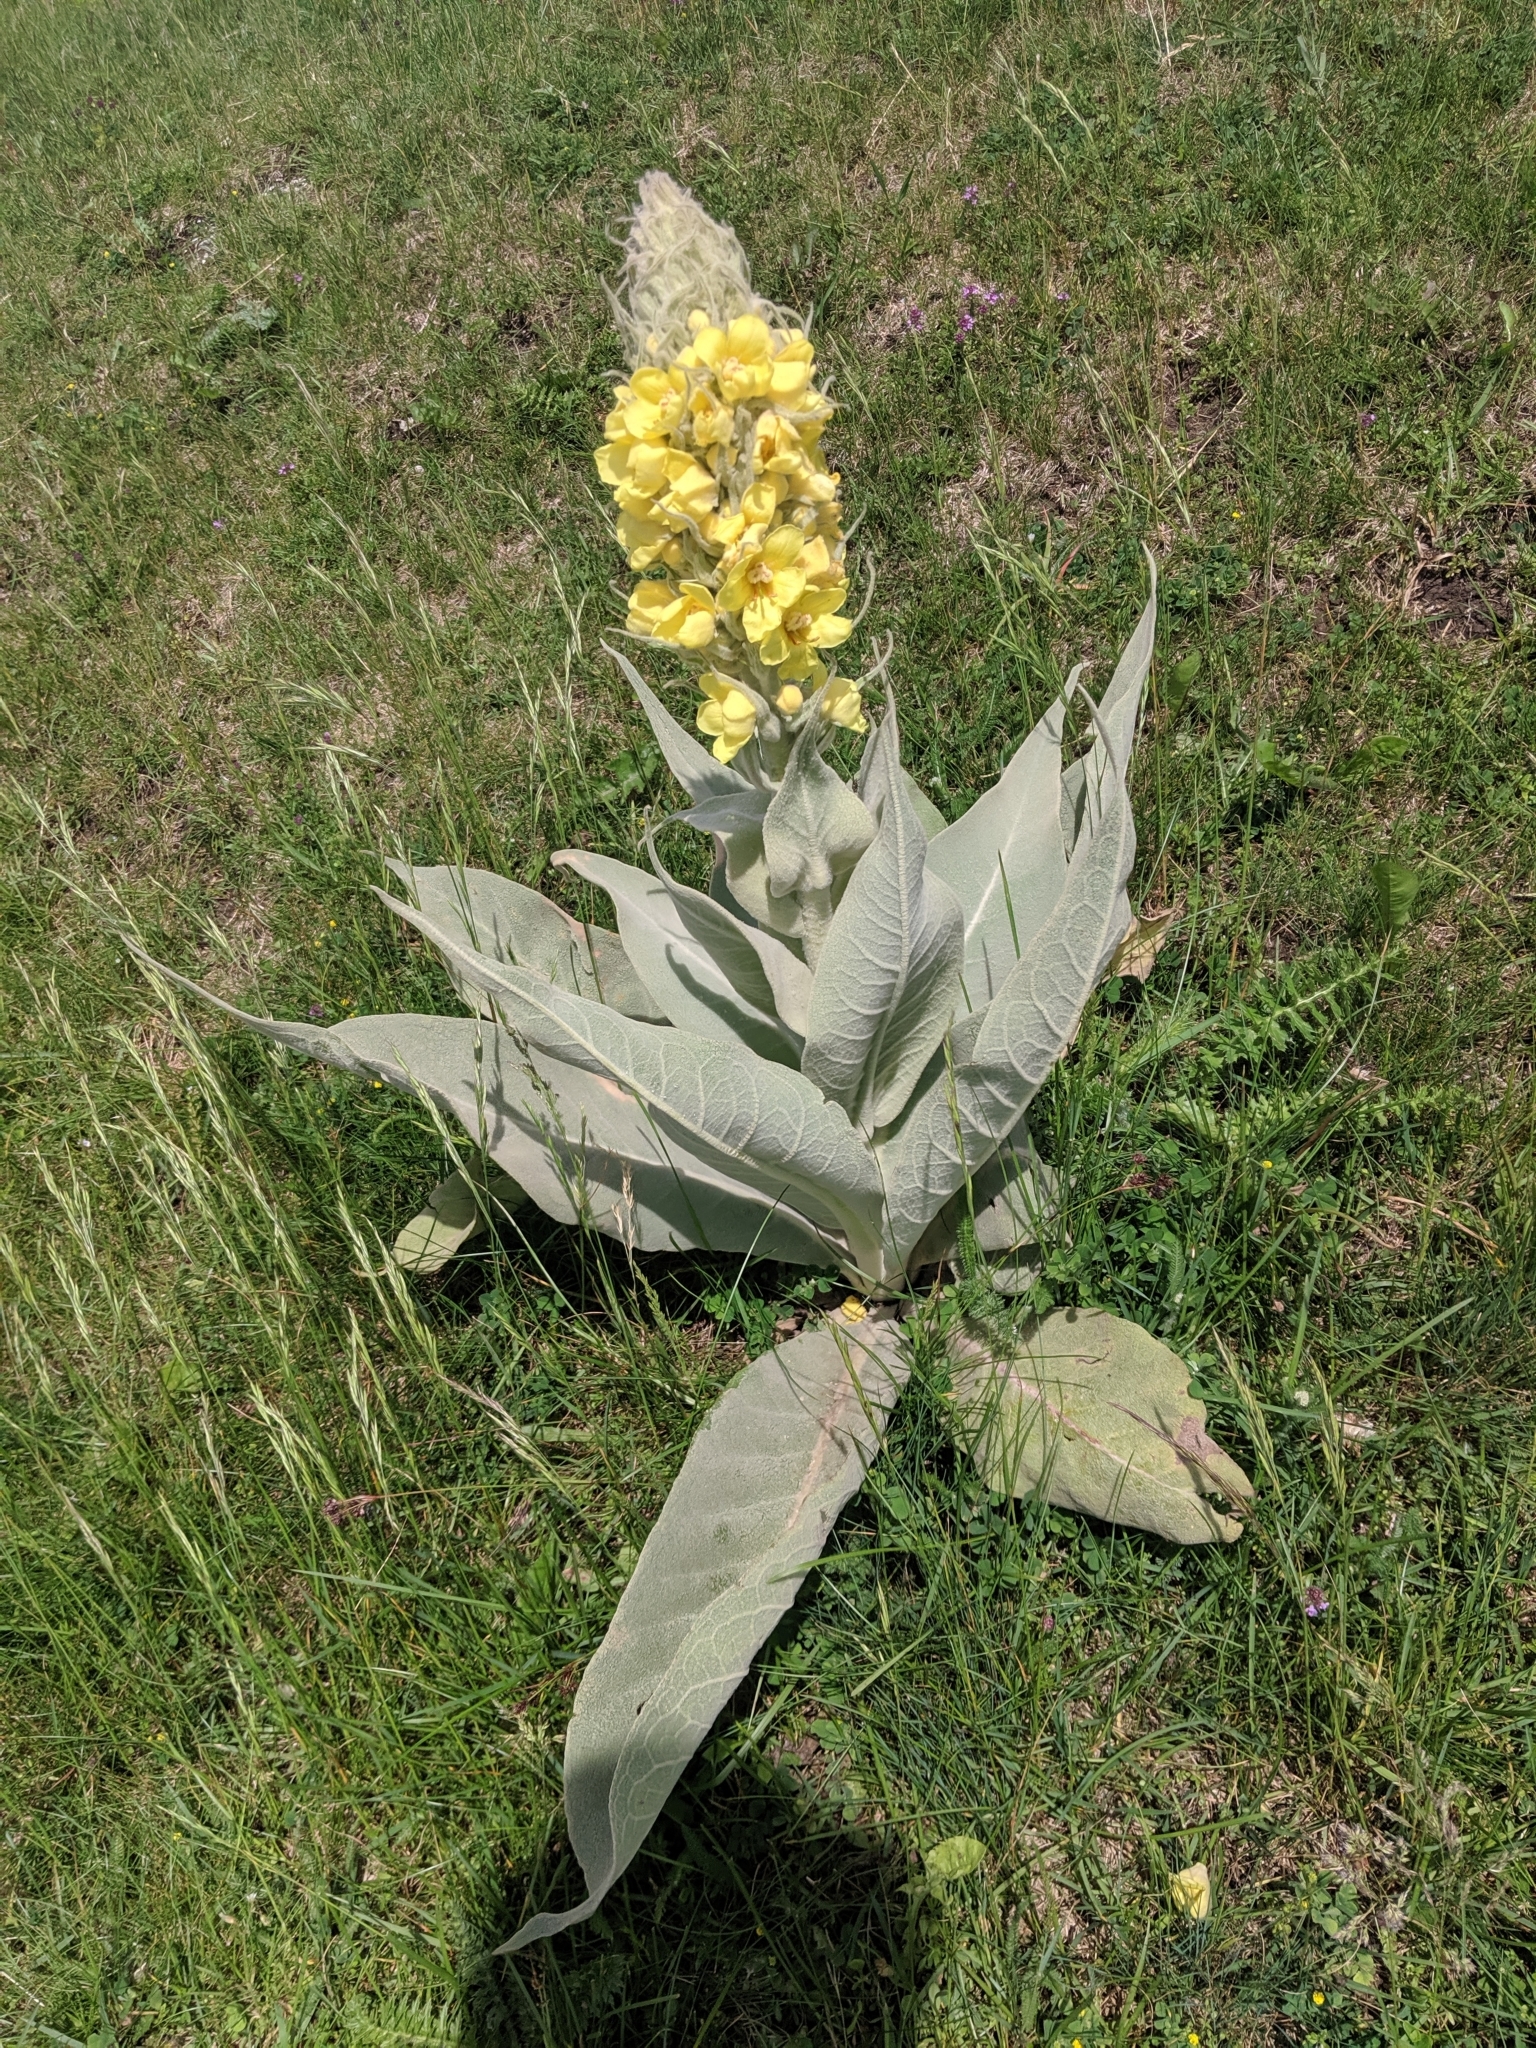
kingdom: Plantae
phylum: Tracheophyta
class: Magnoliopsida
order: Lamiales
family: Scrophulariaceae
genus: Verbascum
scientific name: Verbascum longifolium
